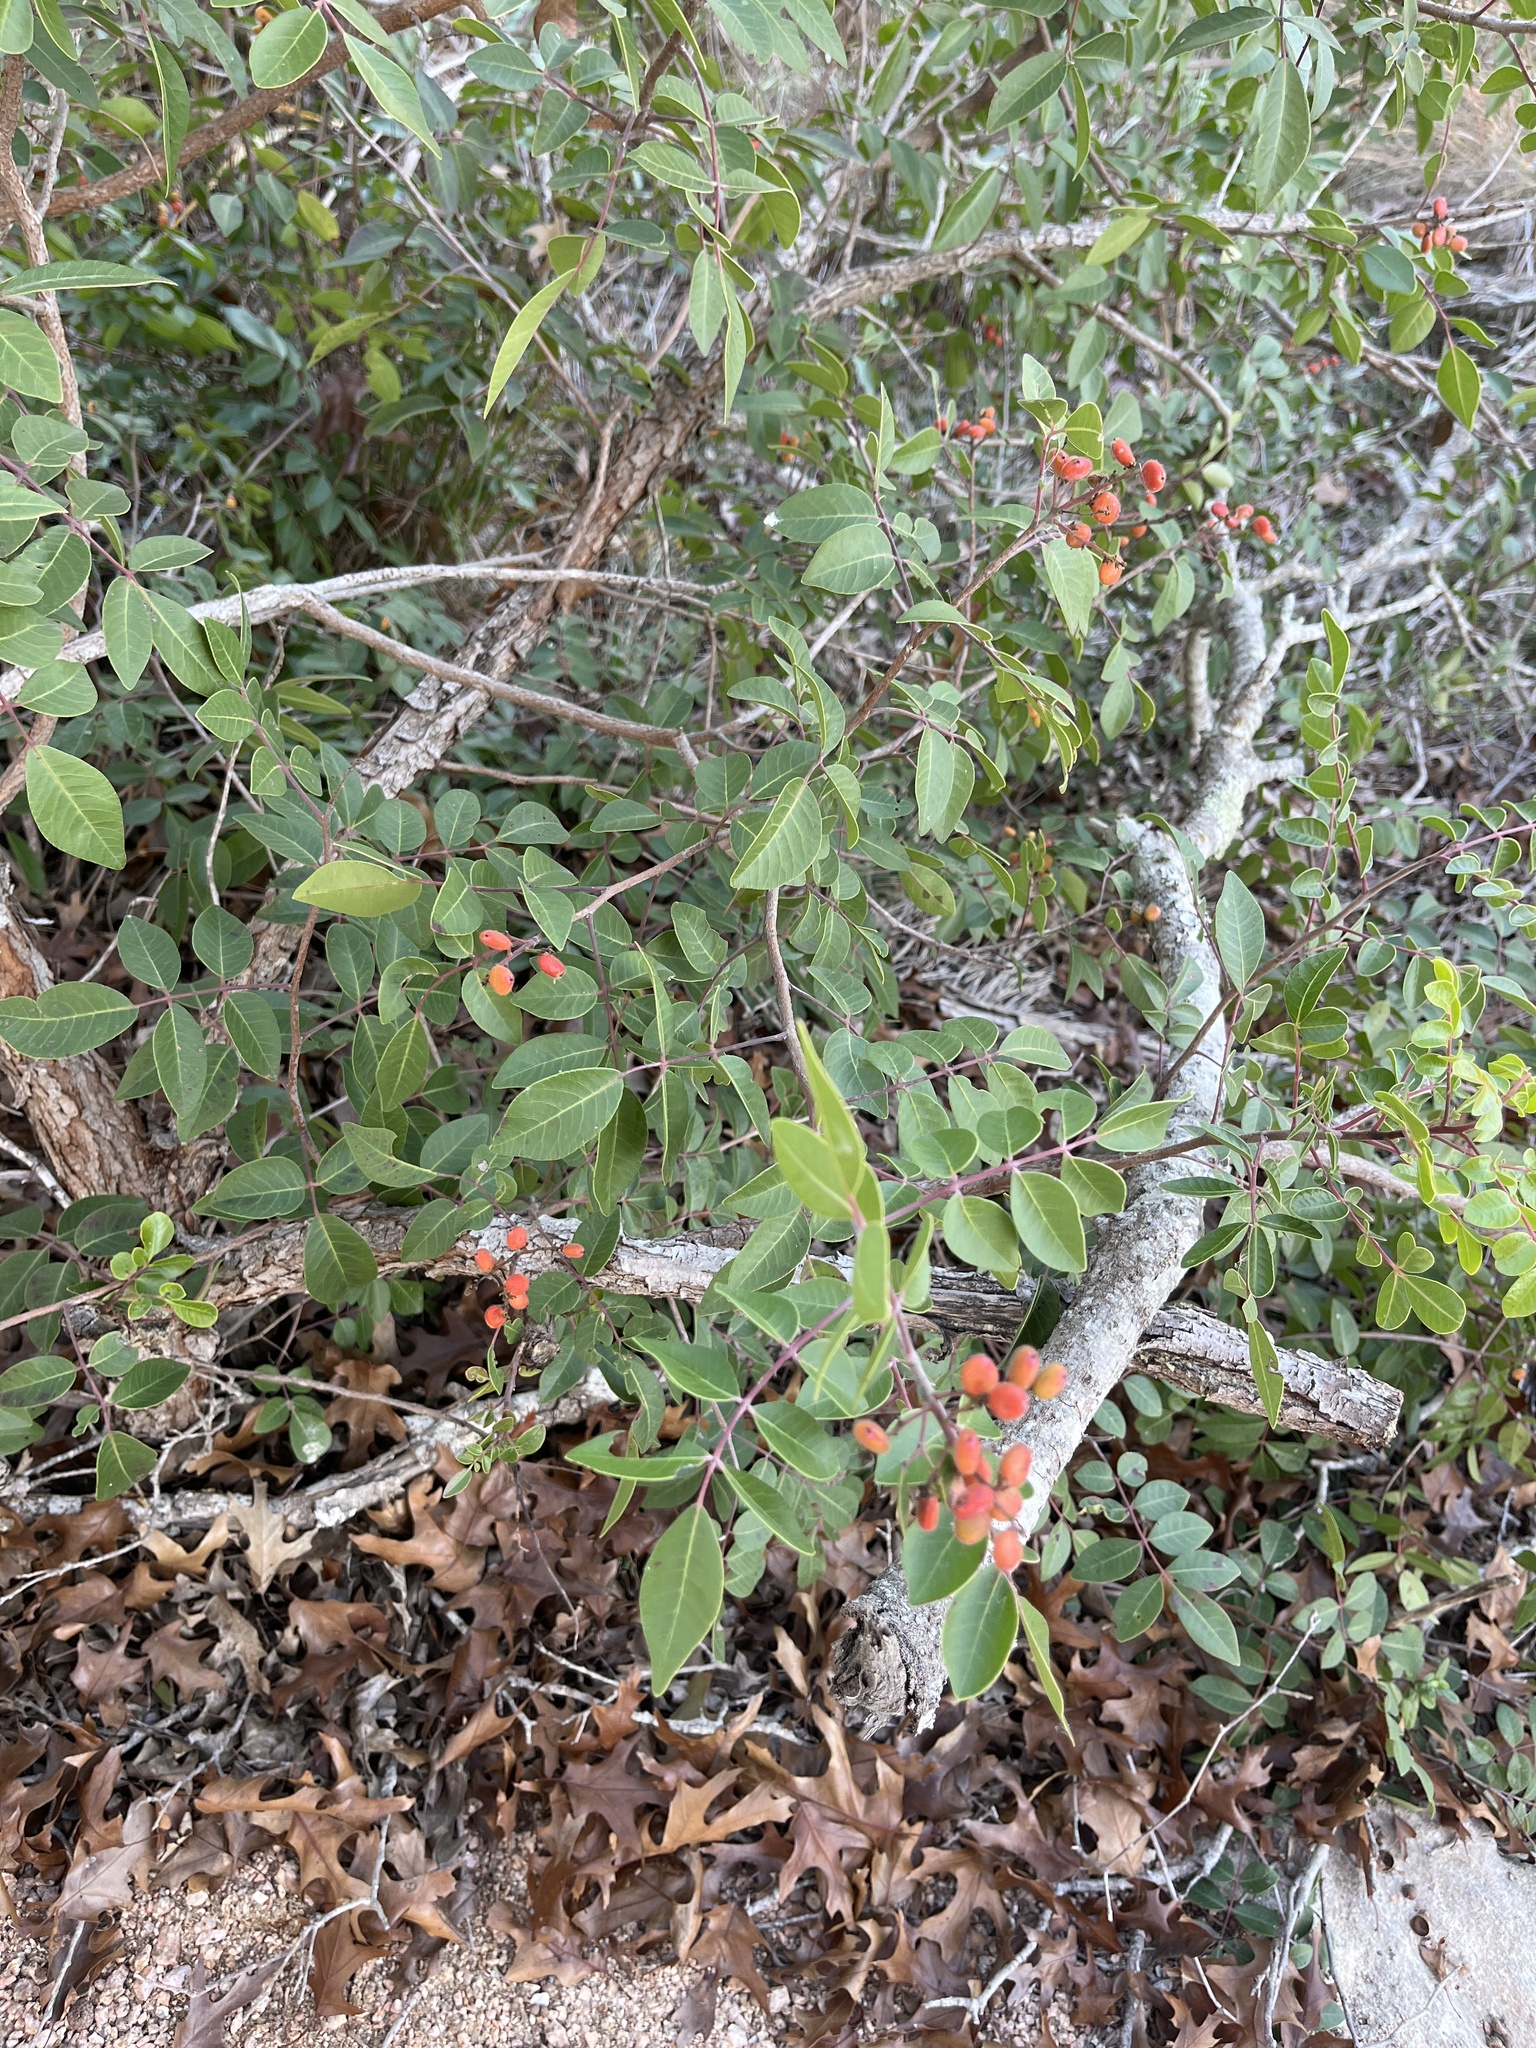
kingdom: Plantae
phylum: Tracheophyta
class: Magnoliopsida
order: Sapindales
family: Anacardiaceae
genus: Rhus
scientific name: Rhus virens
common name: Evergreen sumac
